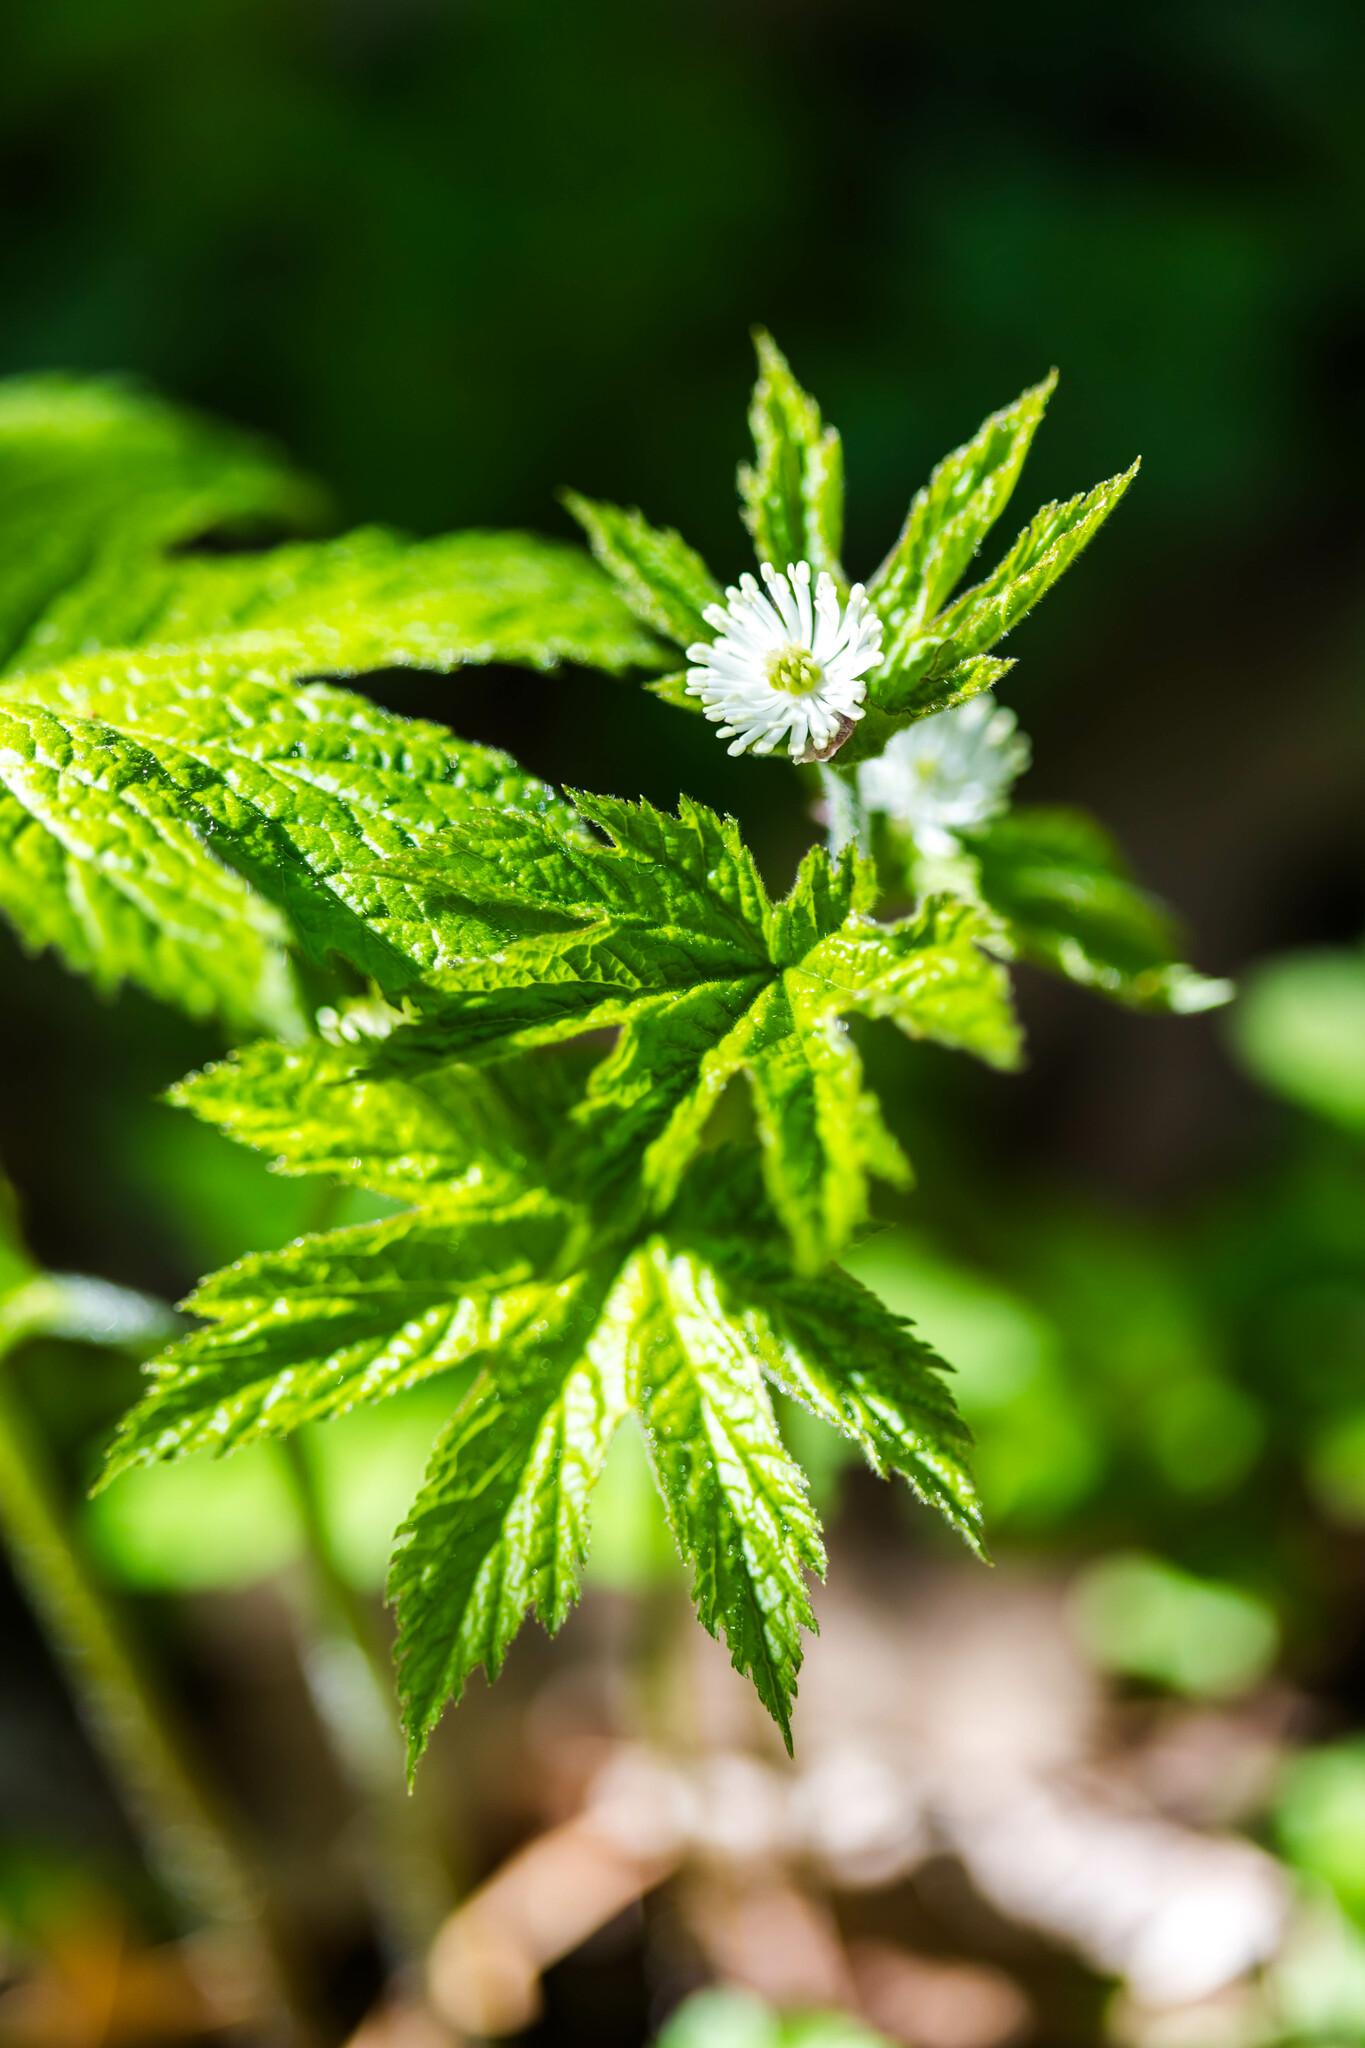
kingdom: Plantae
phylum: Tracheophyta
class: Magnoliopsida
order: Ranunculales
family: Ranunculaceae
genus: Hydrastis
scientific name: Hydrastis canadensis
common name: Goldenseal
